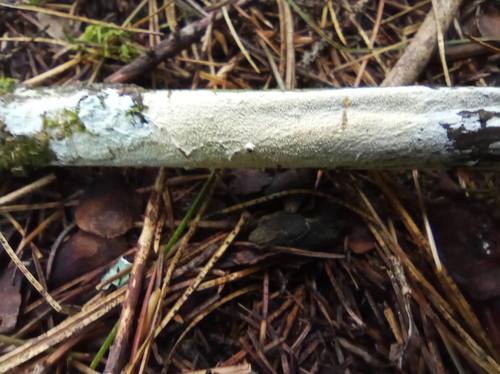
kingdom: Fungi
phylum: Basidiomycota
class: Agaricomycetes
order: Polyporales
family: Irpicaceae
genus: Irpex
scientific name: Irpex lacteus
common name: Milk-white toothed polypore
